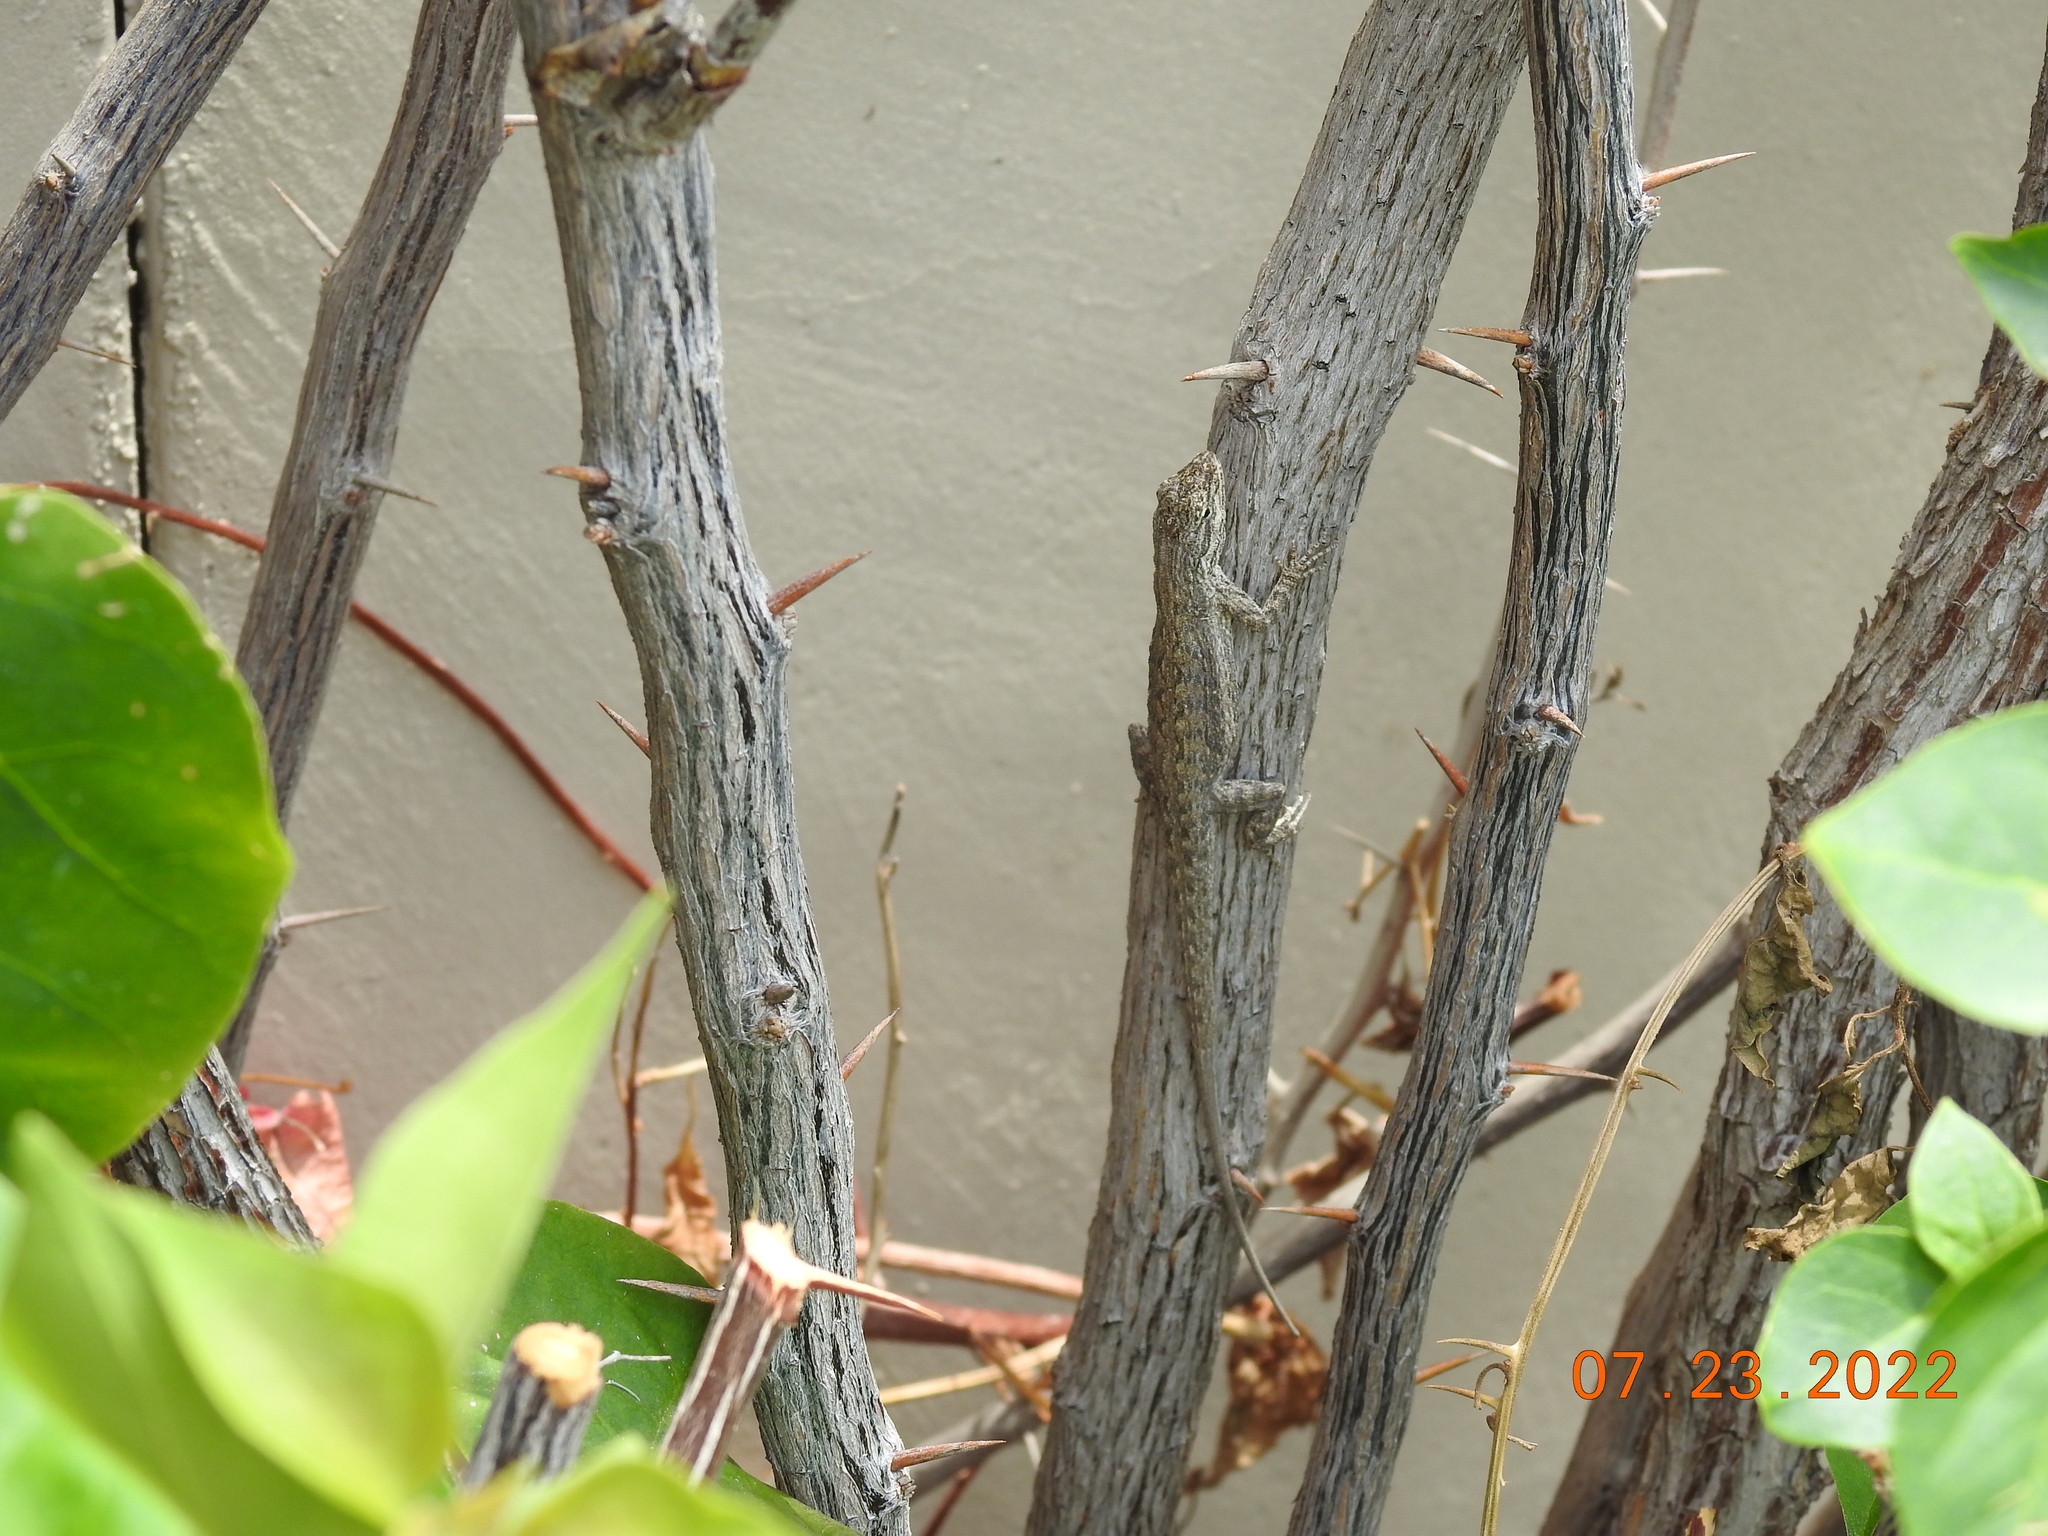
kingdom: Animalia
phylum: Chordata
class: Squamata
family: Phrynosomatidae
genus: Urosaurus
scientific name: Urosaurus graciosus
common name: Long-tailed brush lizard
